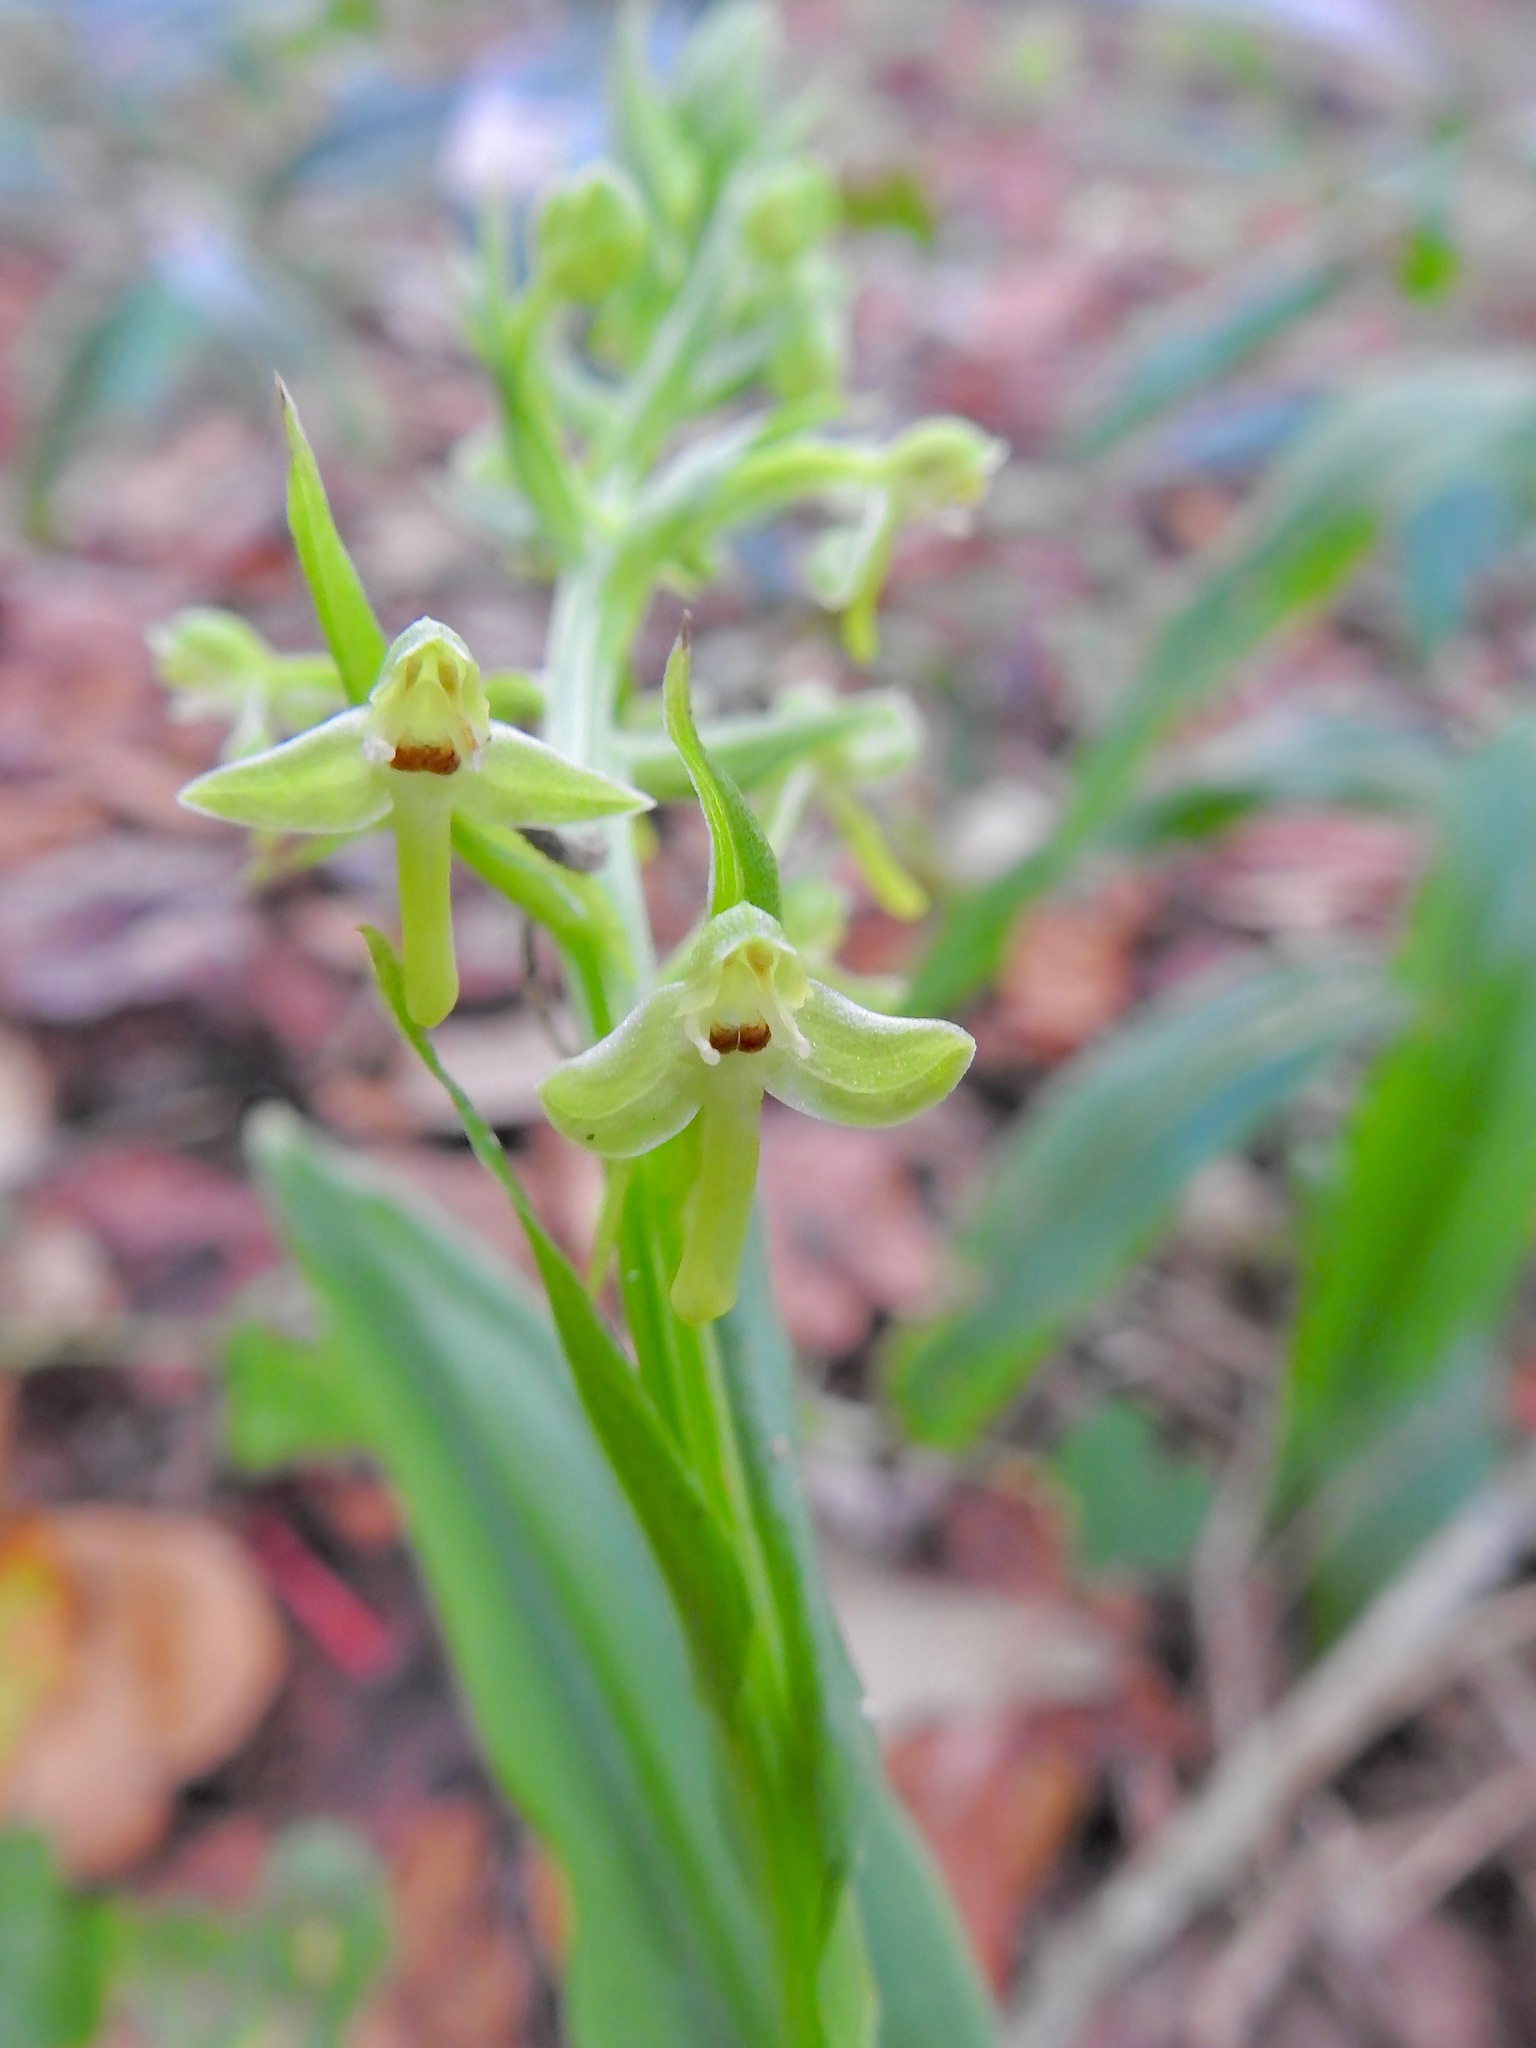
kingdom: Plantae
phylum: Tracheophyta
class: Liliopsida
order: Asparagales
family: Orchidaceae
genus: Habenaria
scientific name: Habenaria floribunda
